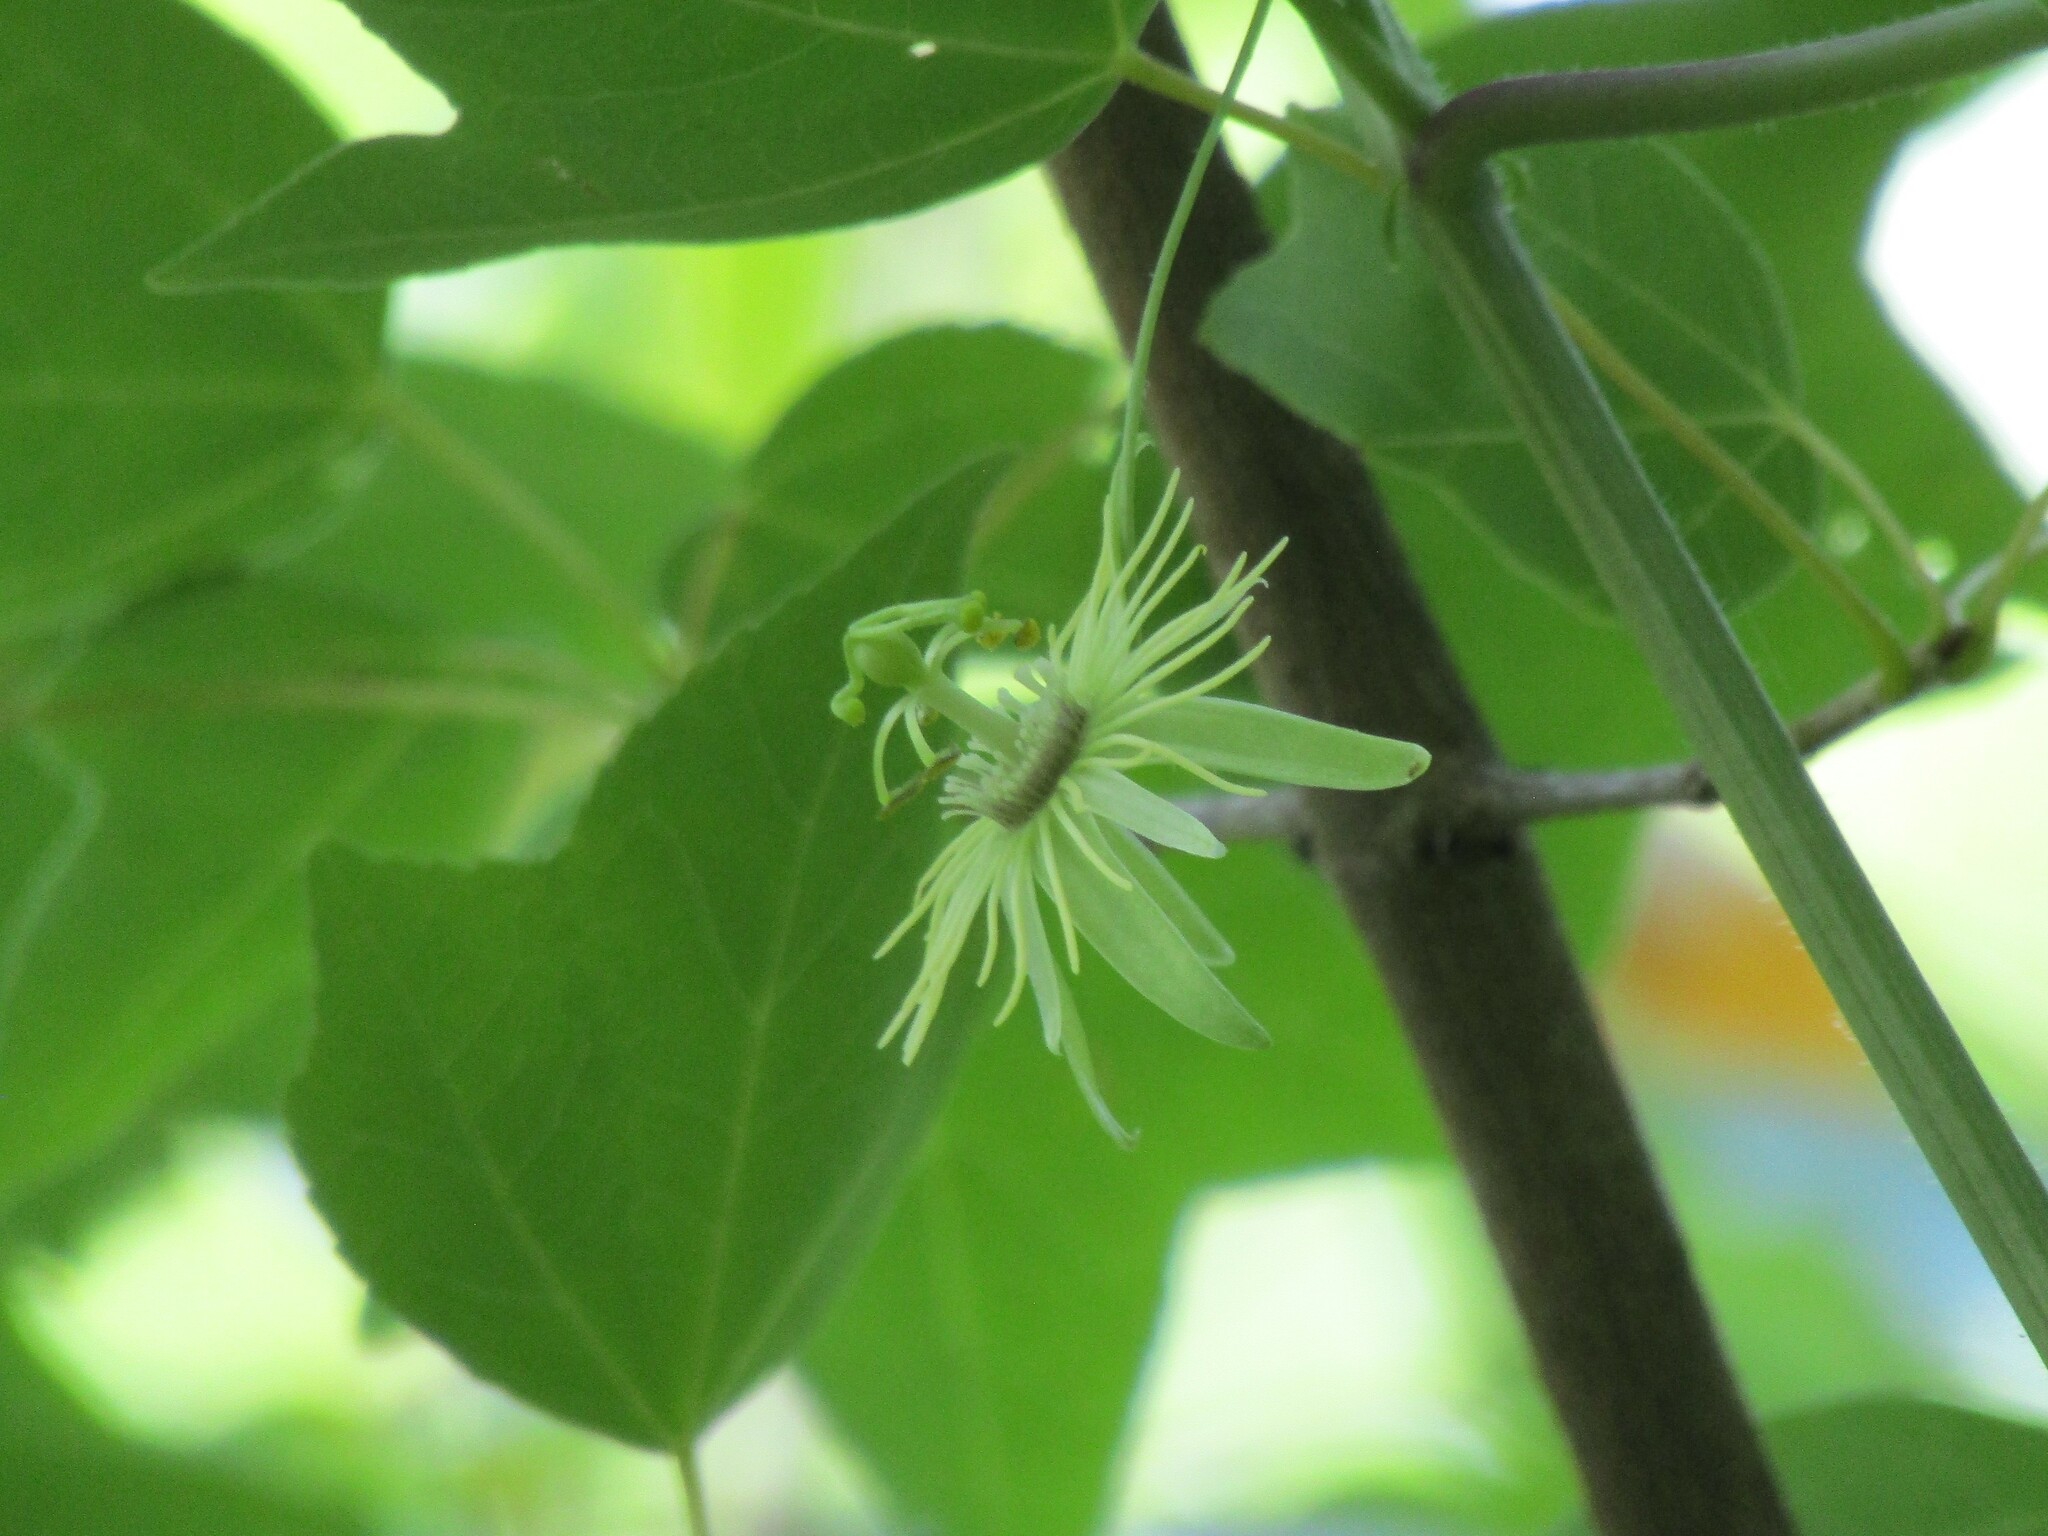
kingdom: Plantae
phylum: Tracheophyta
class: Magnoliopsida
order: Malpighiales
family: Passifloraceae
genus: Passiflora
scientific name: Passiflora lutea
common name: Yellow passionflower
